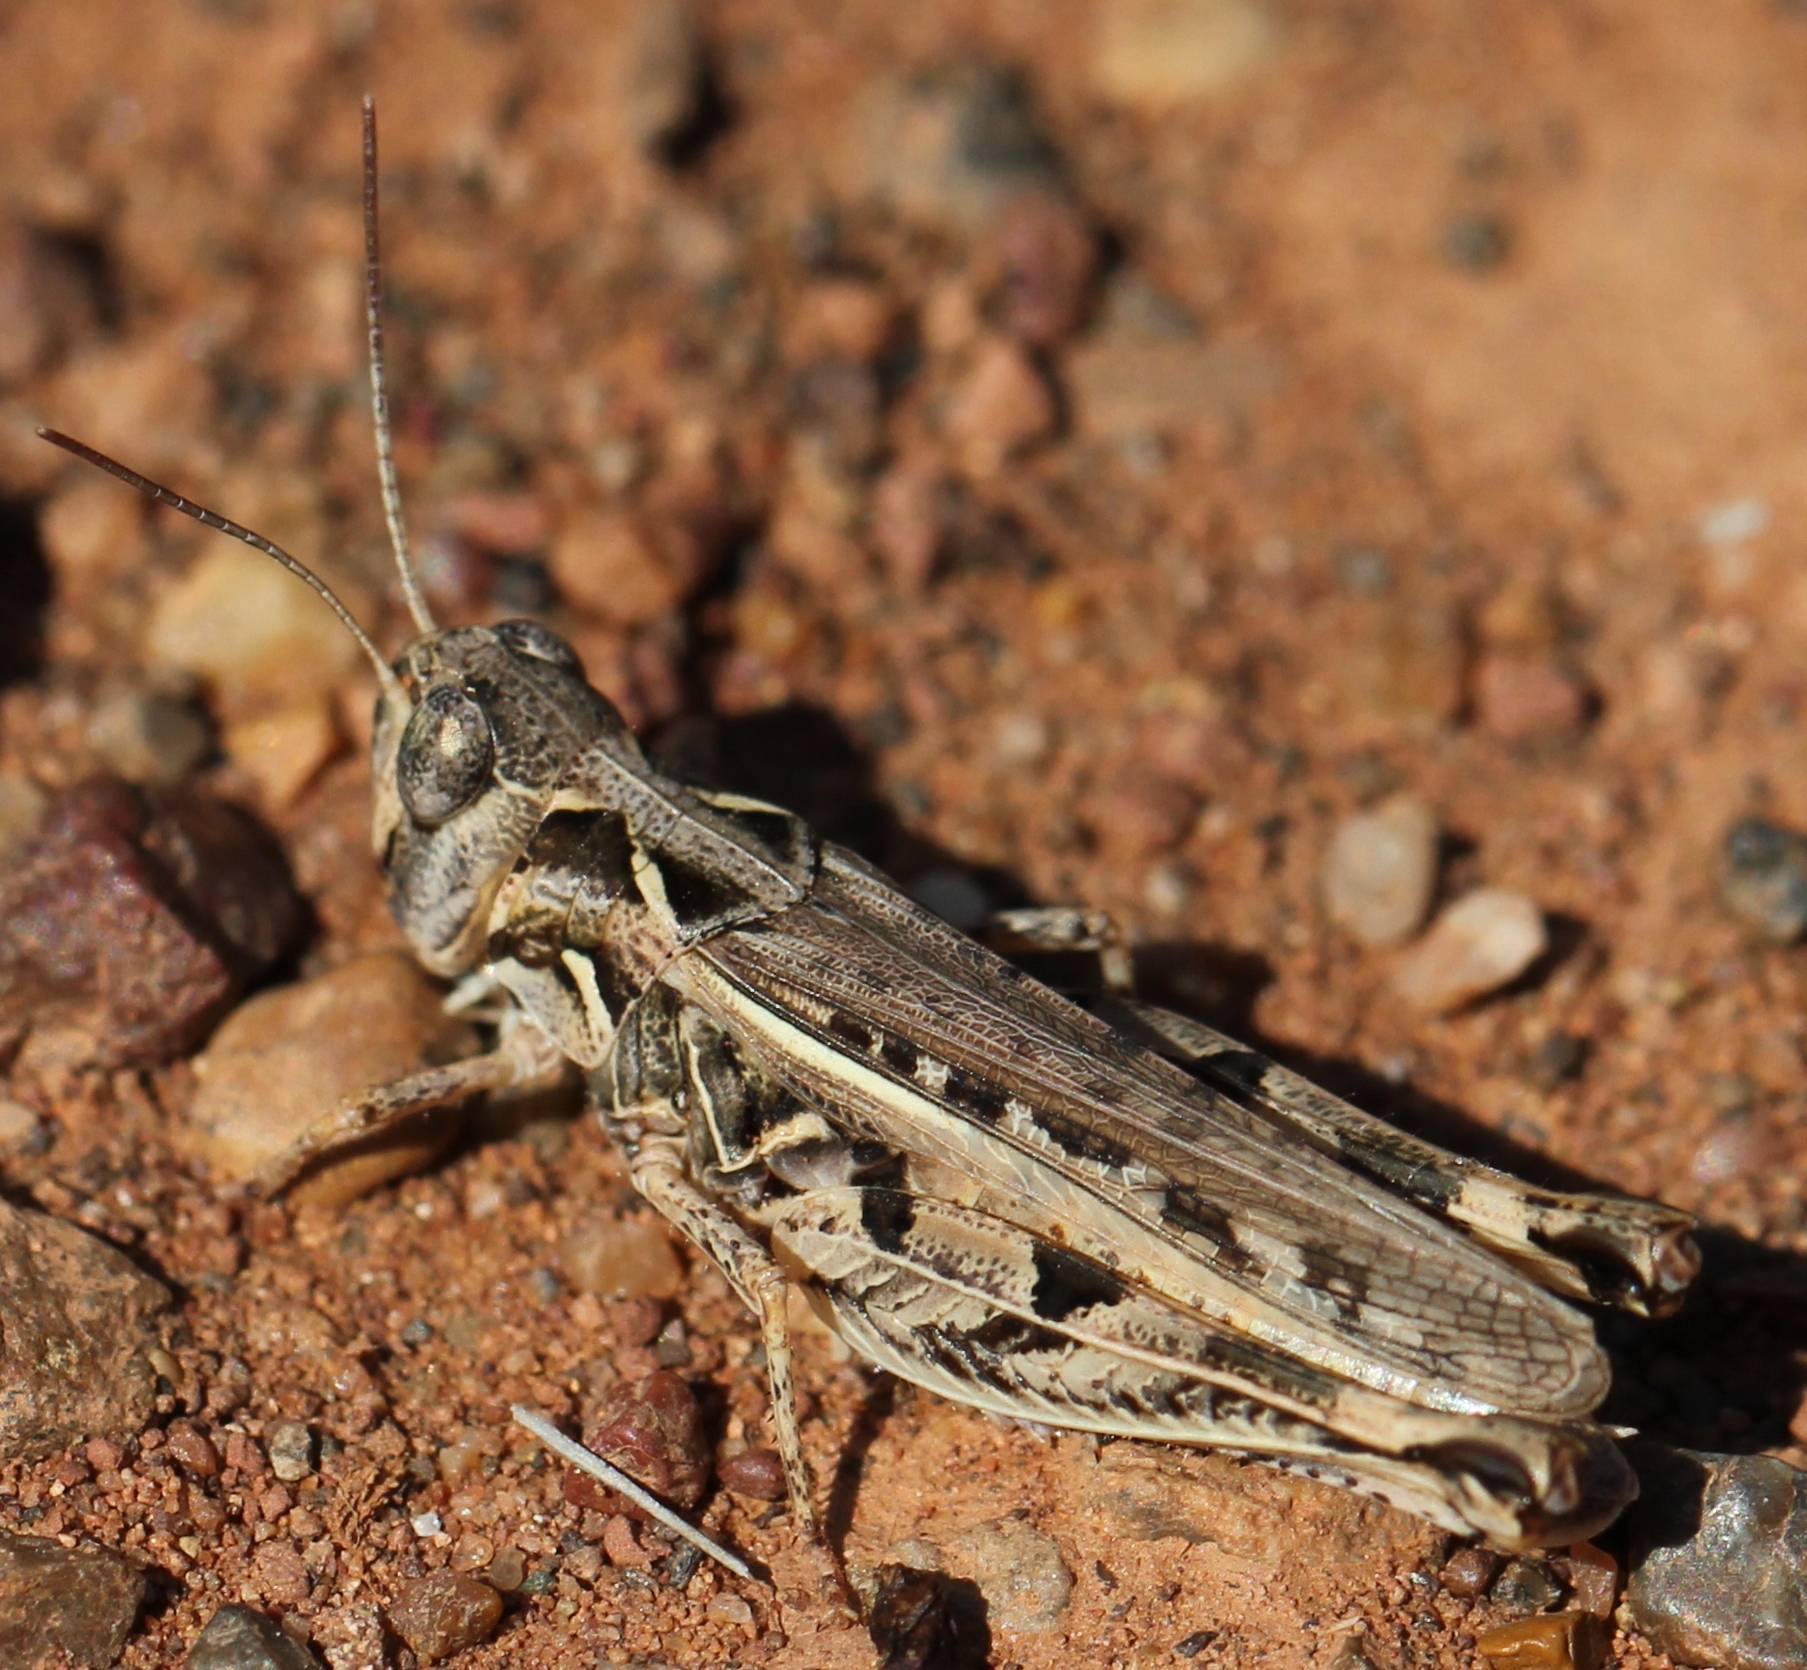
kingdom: Animalia
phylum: Arthropoda
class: Insecta
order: Orthoptera
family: Acrididae
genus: Dociostaurus
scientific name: Dociostaurus brevicollis
